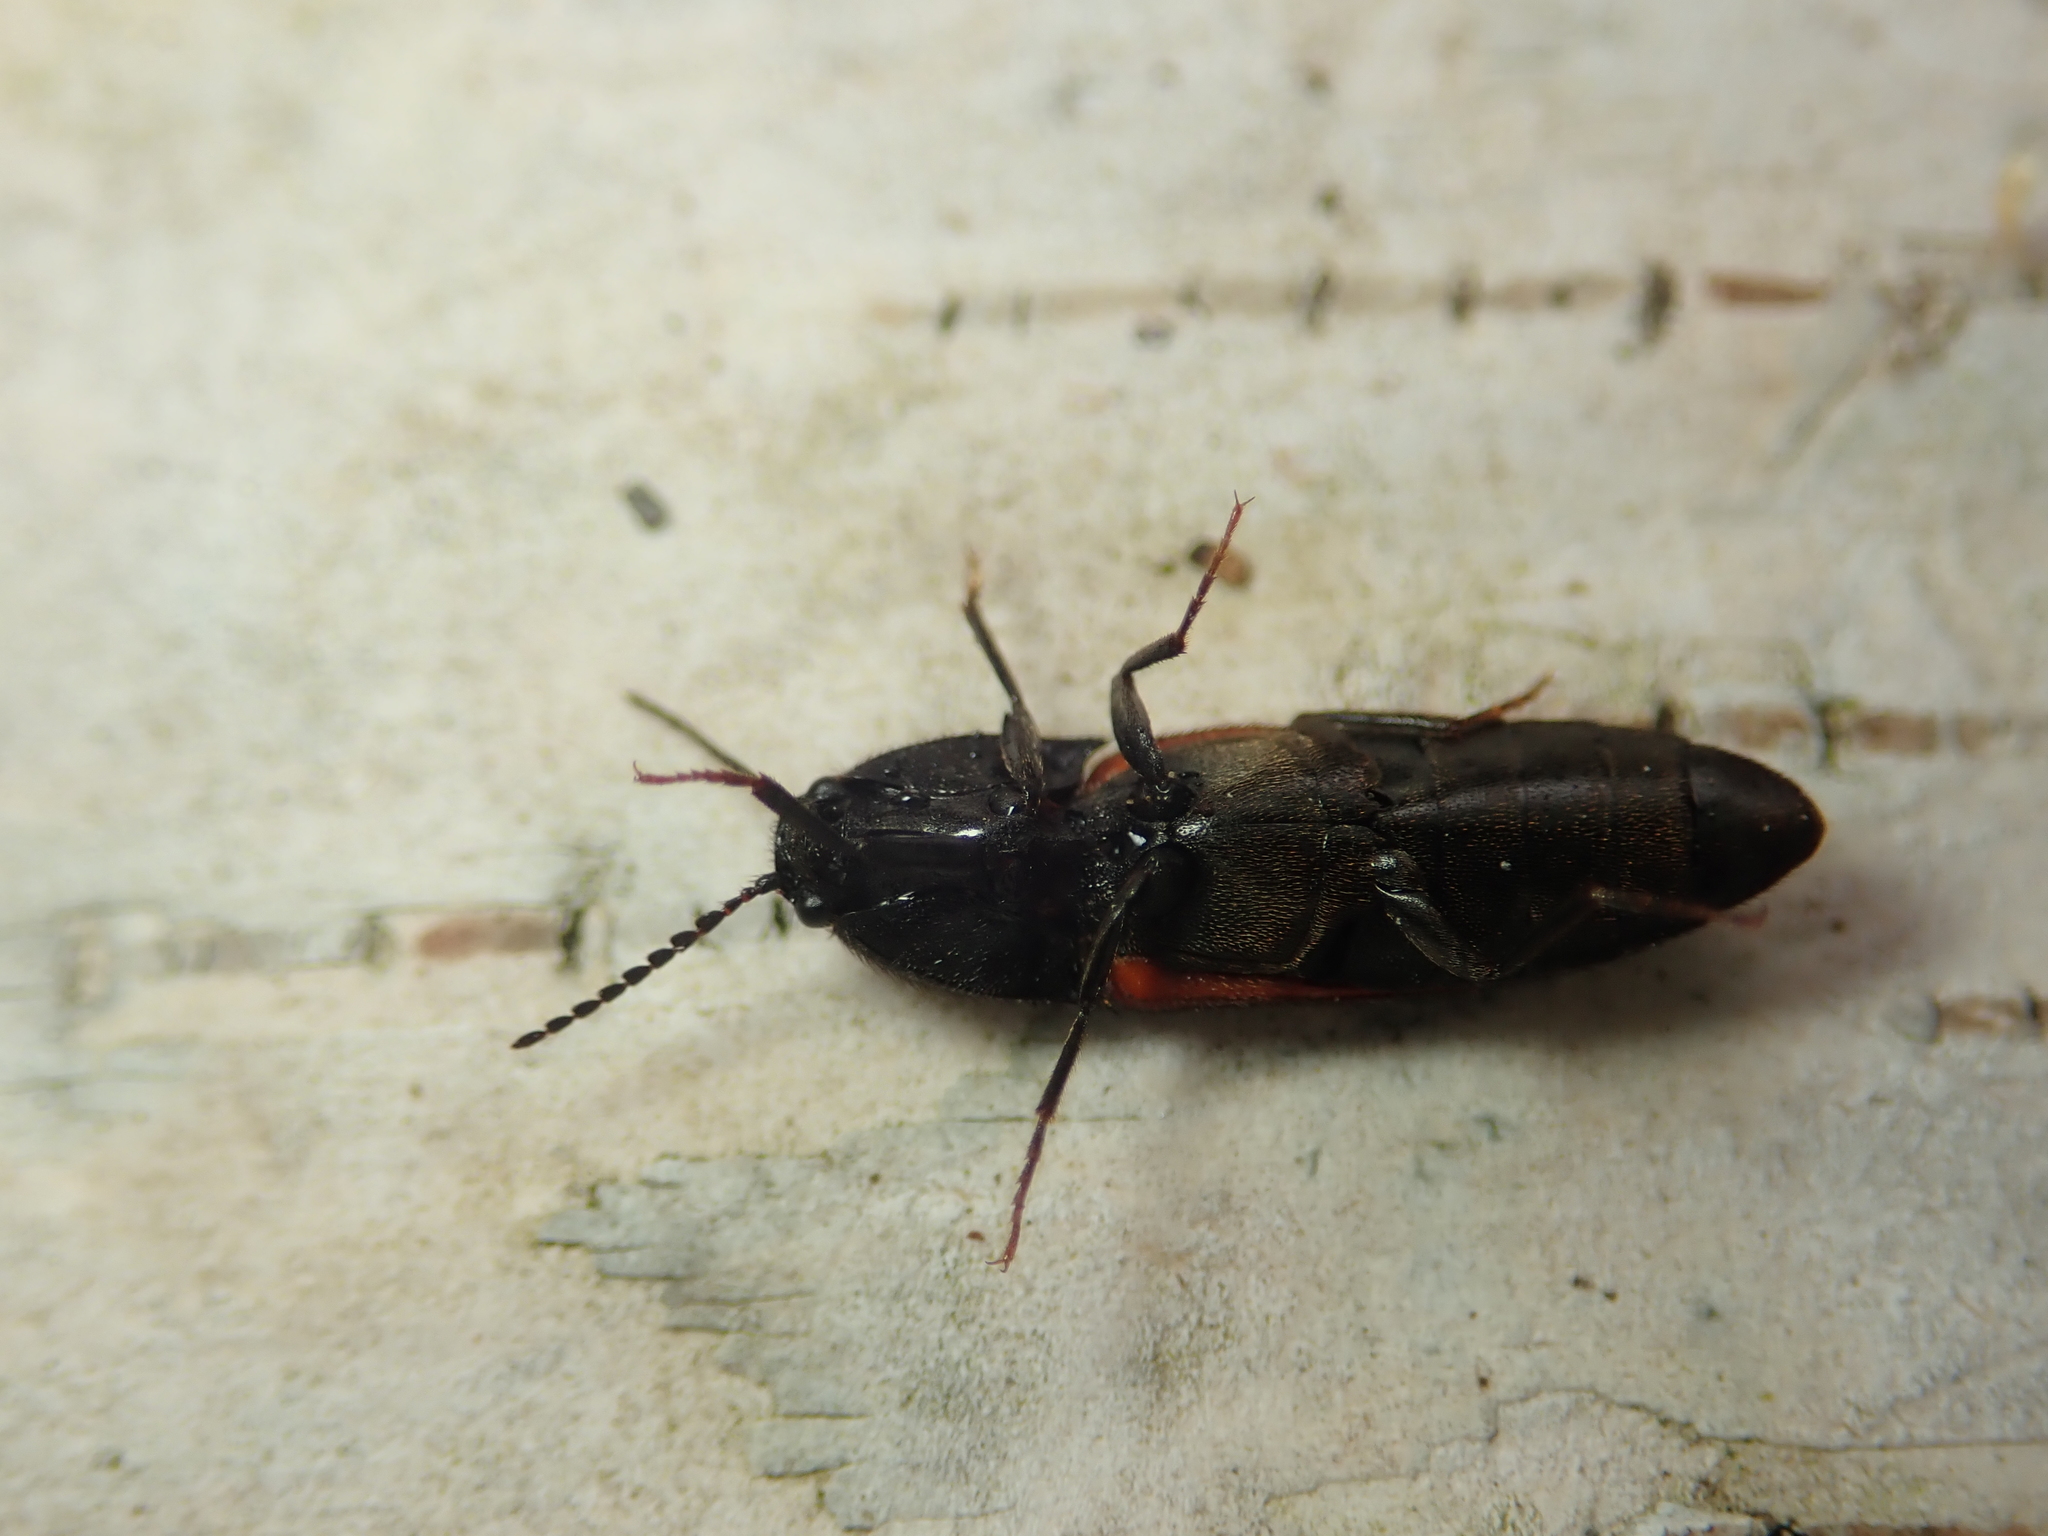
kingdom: Animalia
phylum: Arthropoda
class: Insecta
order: Coleoptera
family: Elateridae
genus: Ampedus
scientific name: Ampedus pomorum
